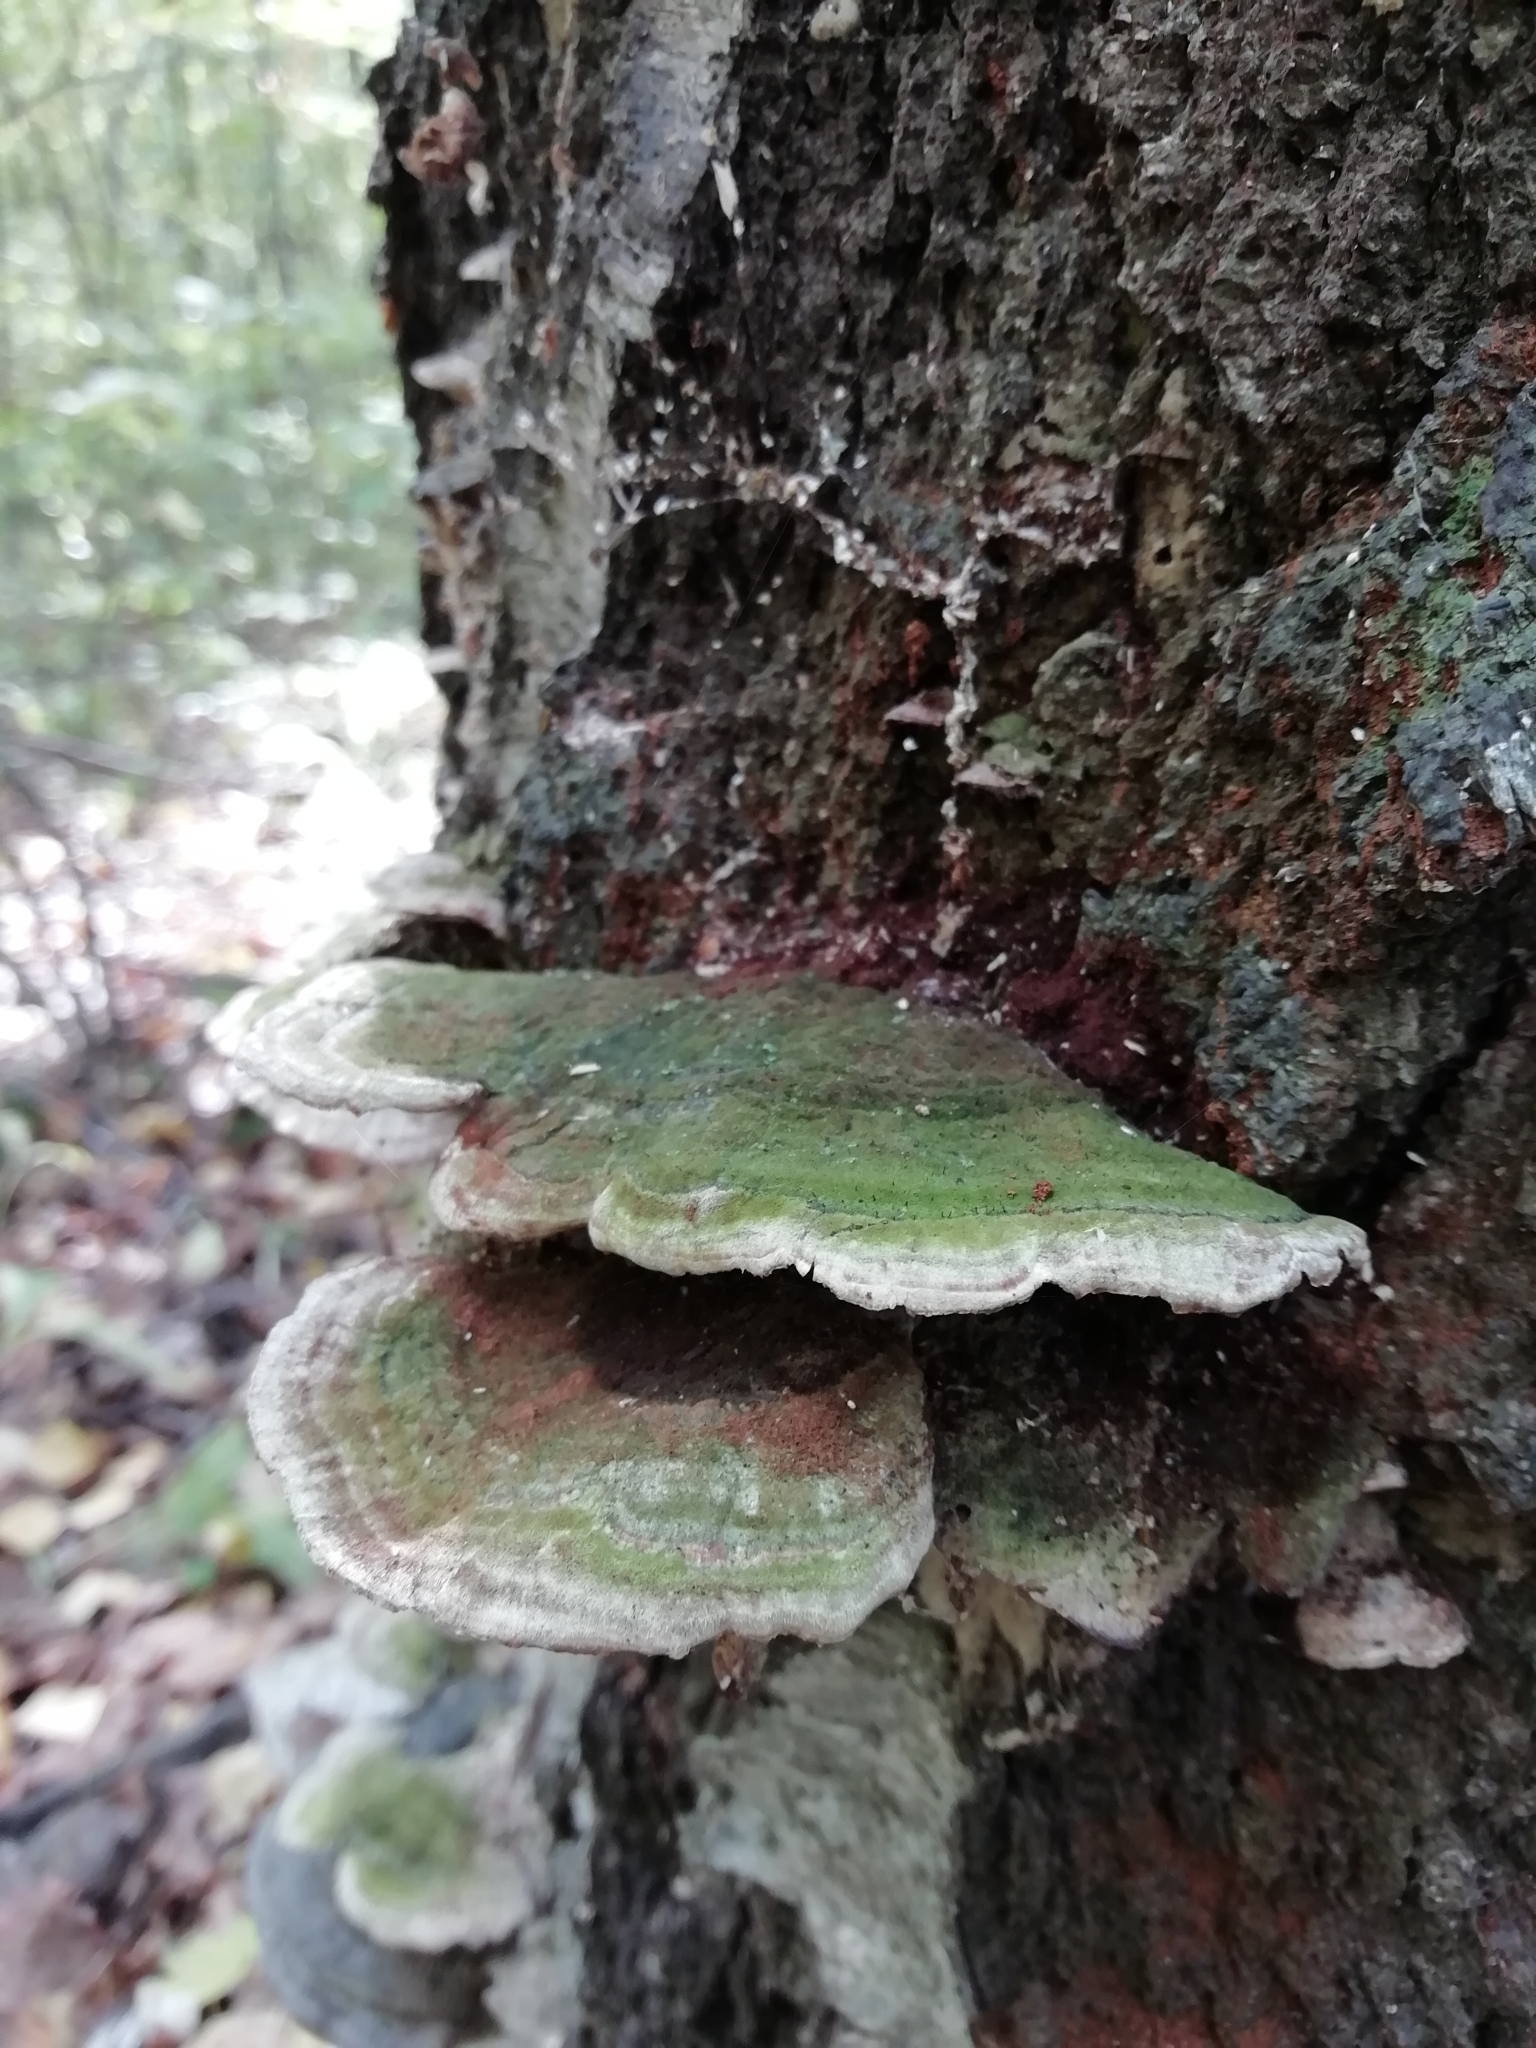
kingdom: Fungi
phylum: Basidiomycota
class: Agaricomycetes
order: Hymenochaetales
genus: Trichaptum
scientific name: Trichaptum biforme
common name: Violet-toothed polypore
